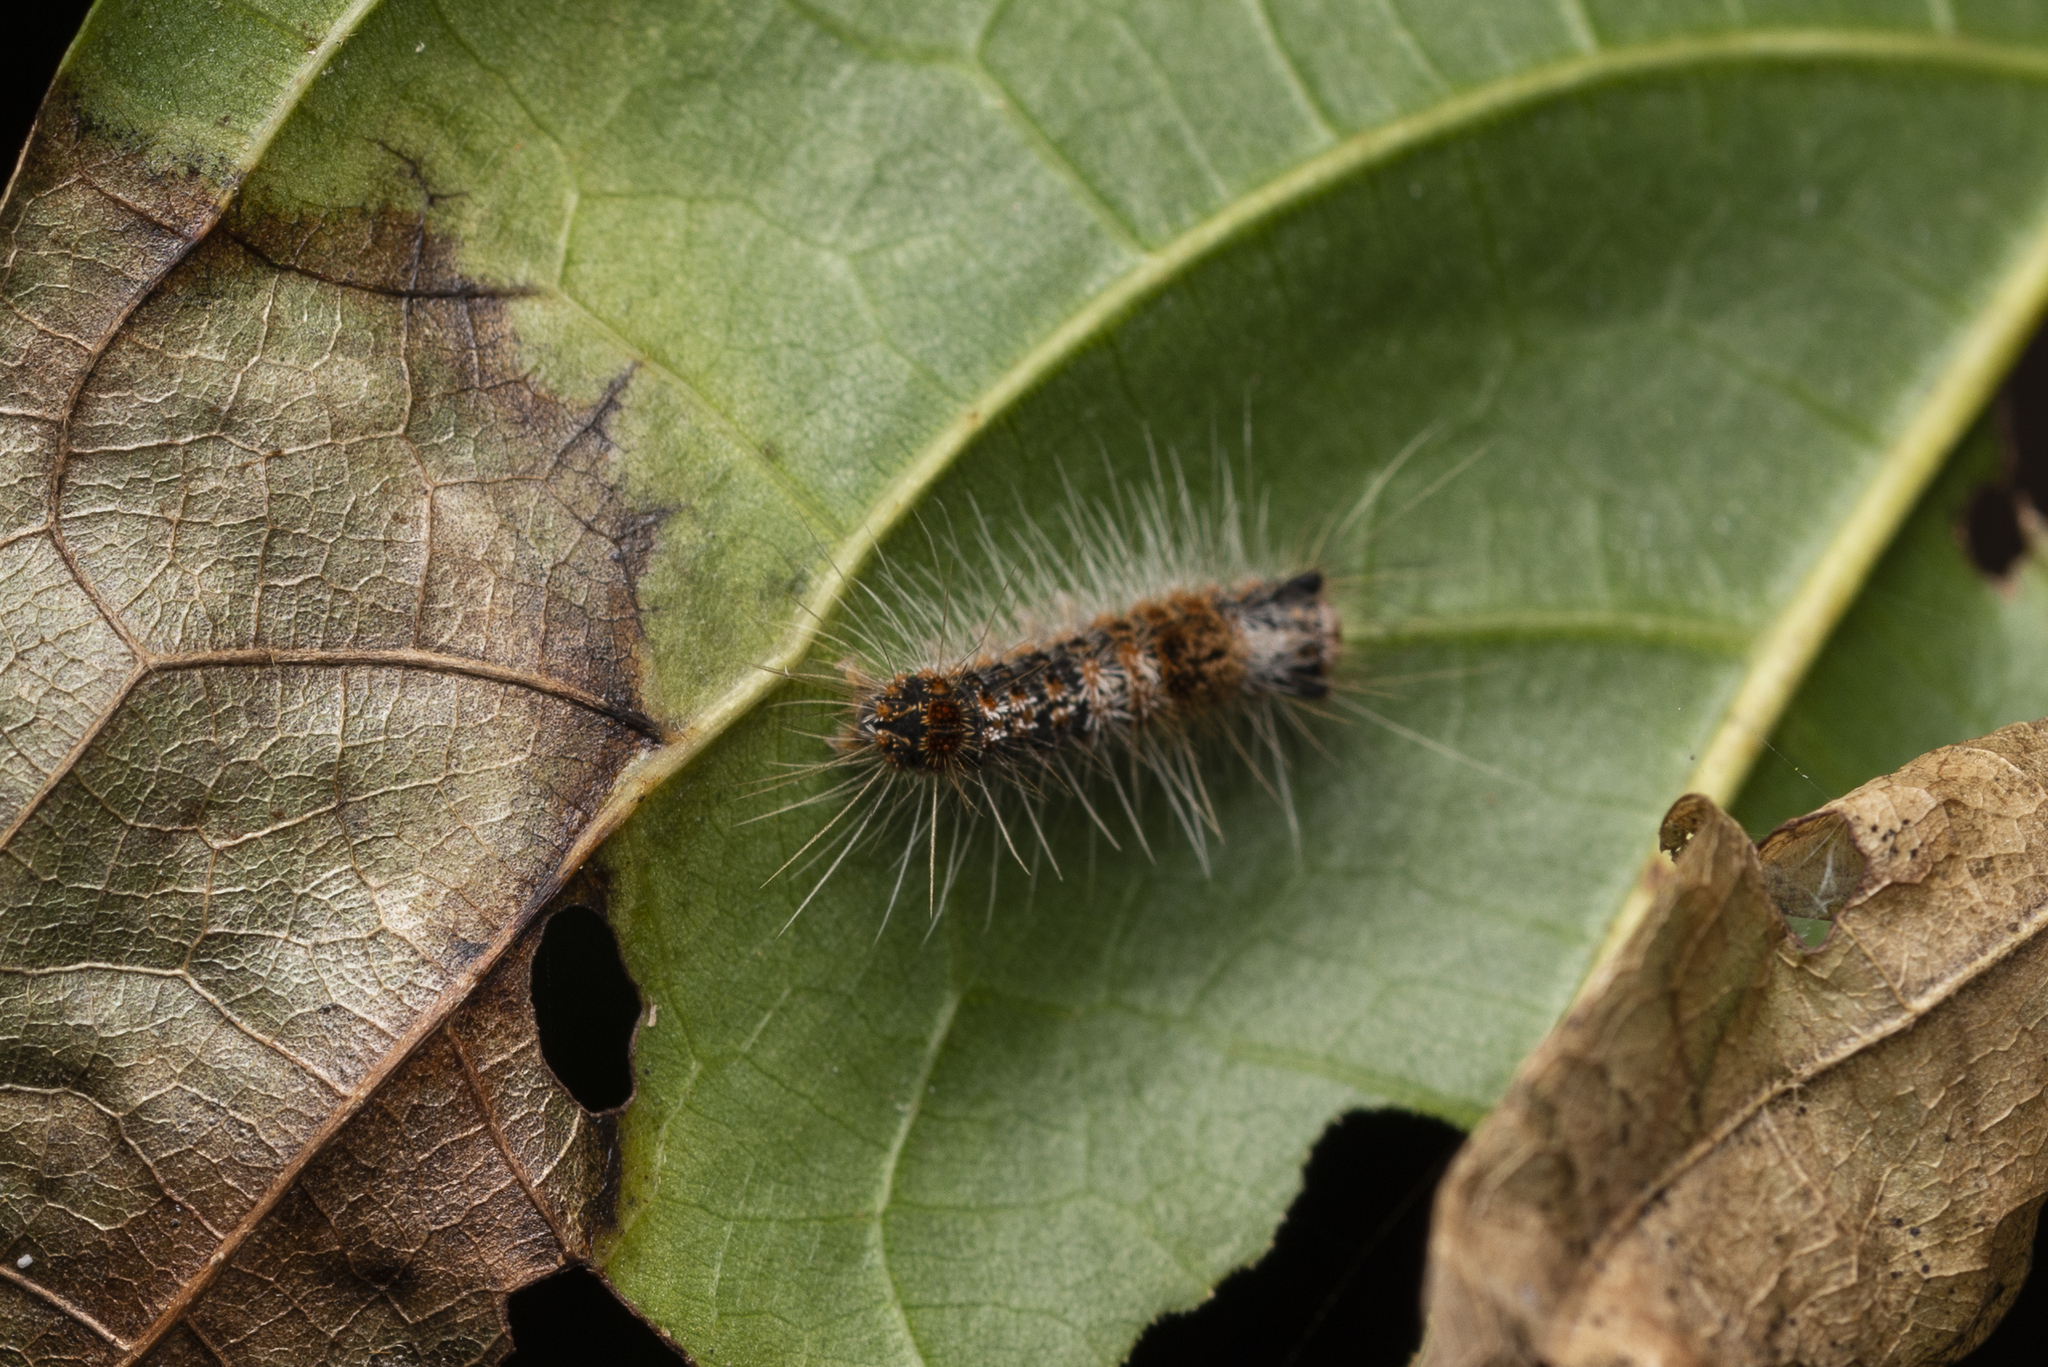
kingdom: Animalia
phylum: Arthropoda
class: Insecta
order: Lepidoptera
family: Erebidae
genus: Artaxa
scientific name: Artaxa digramma
